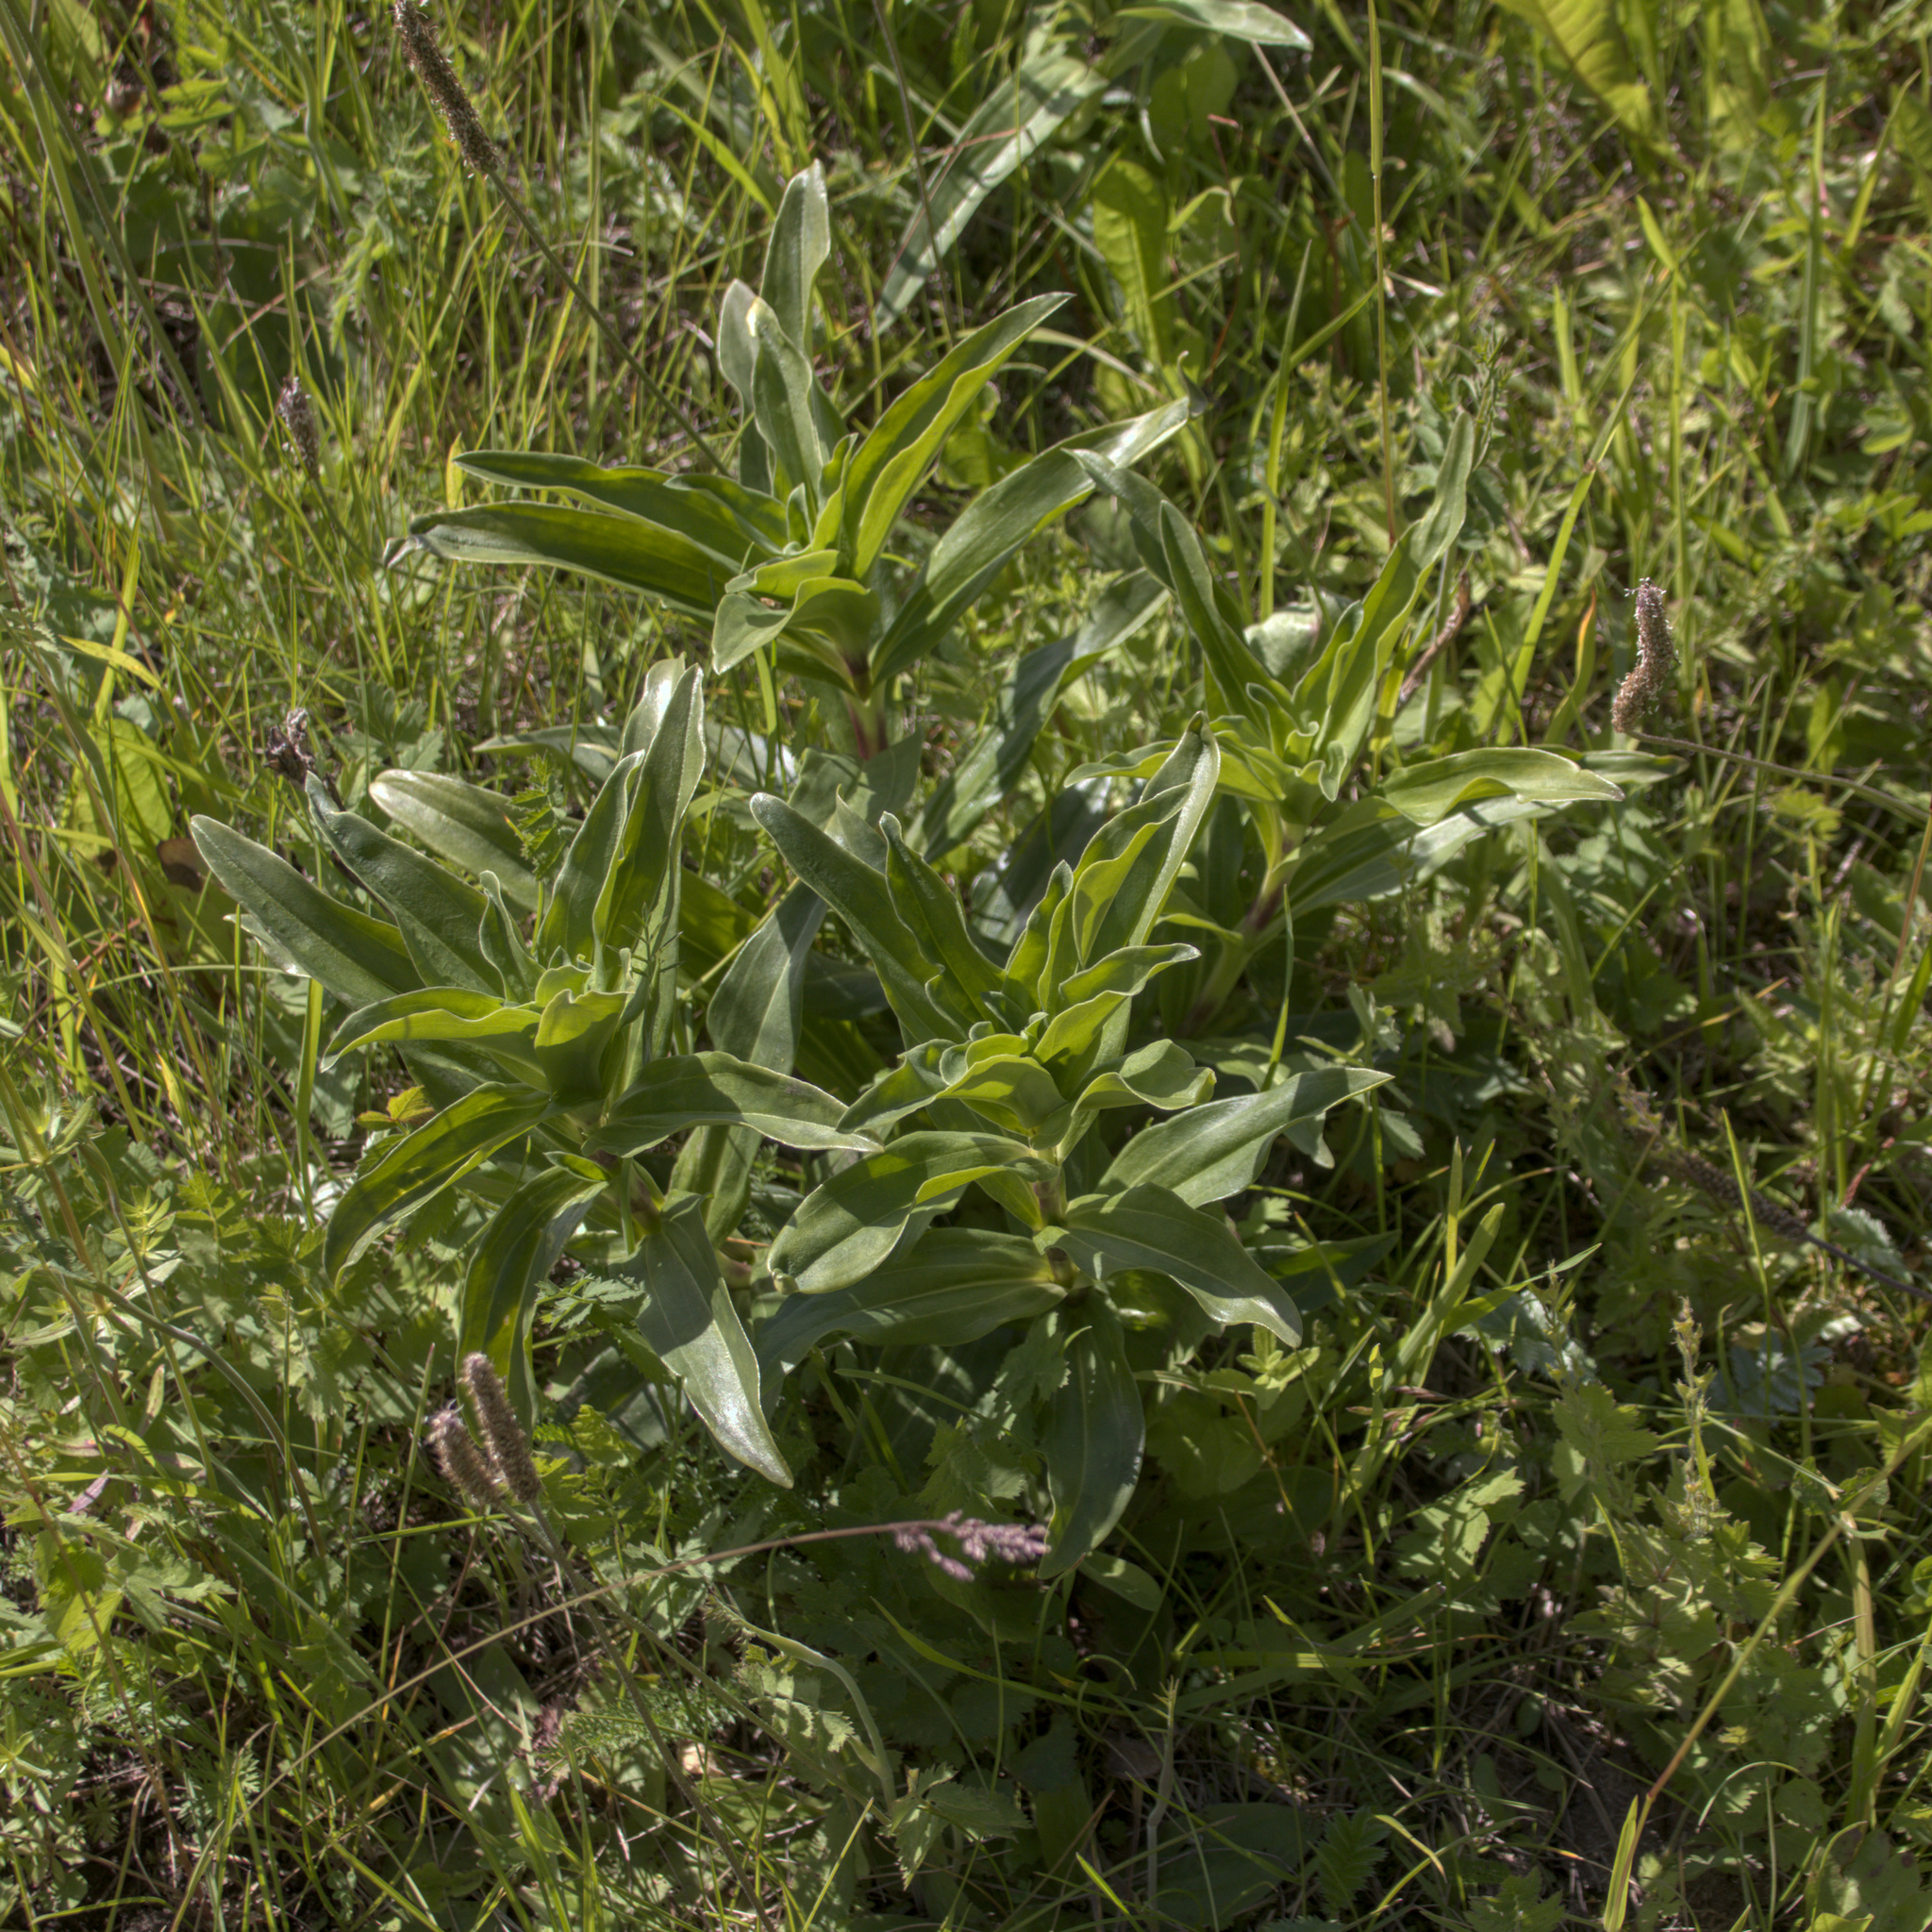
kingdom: Plantae
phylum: Tracheophyta
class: Magnoliopsida
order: Gentianales
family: Gentianaceae
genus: Gentiana
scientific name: Gentiana cruciata
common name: Cross gentian
